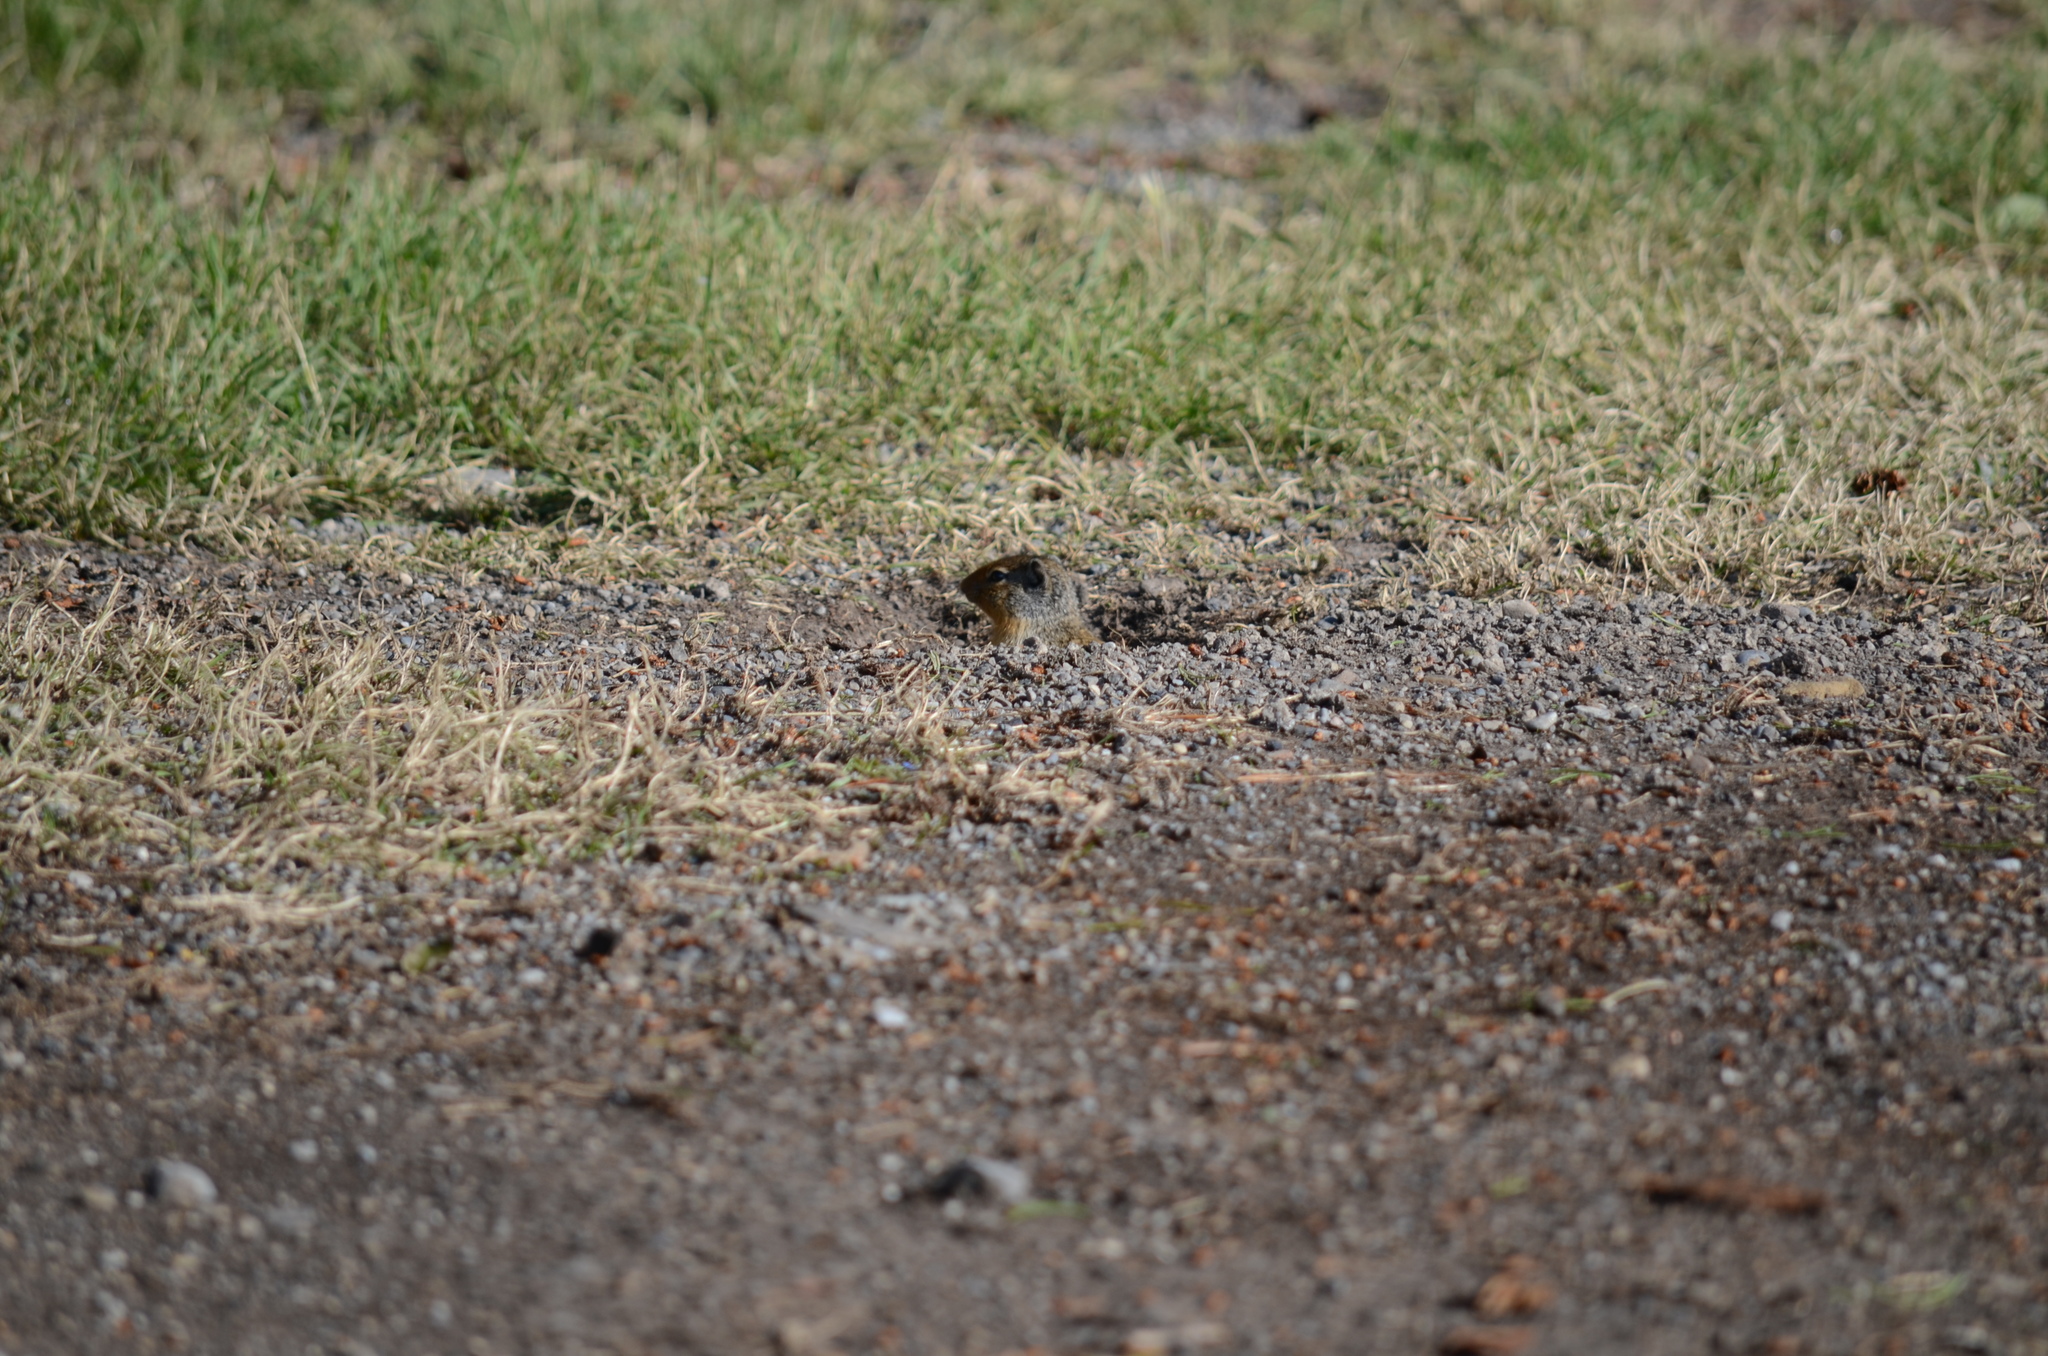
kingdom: Animalia
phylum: Chordata
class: Mammalia
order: Rodentia
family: Sciuridae
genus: Urocitellus
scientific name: Urocitellus columbianus
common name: Columbian ground squirrel
